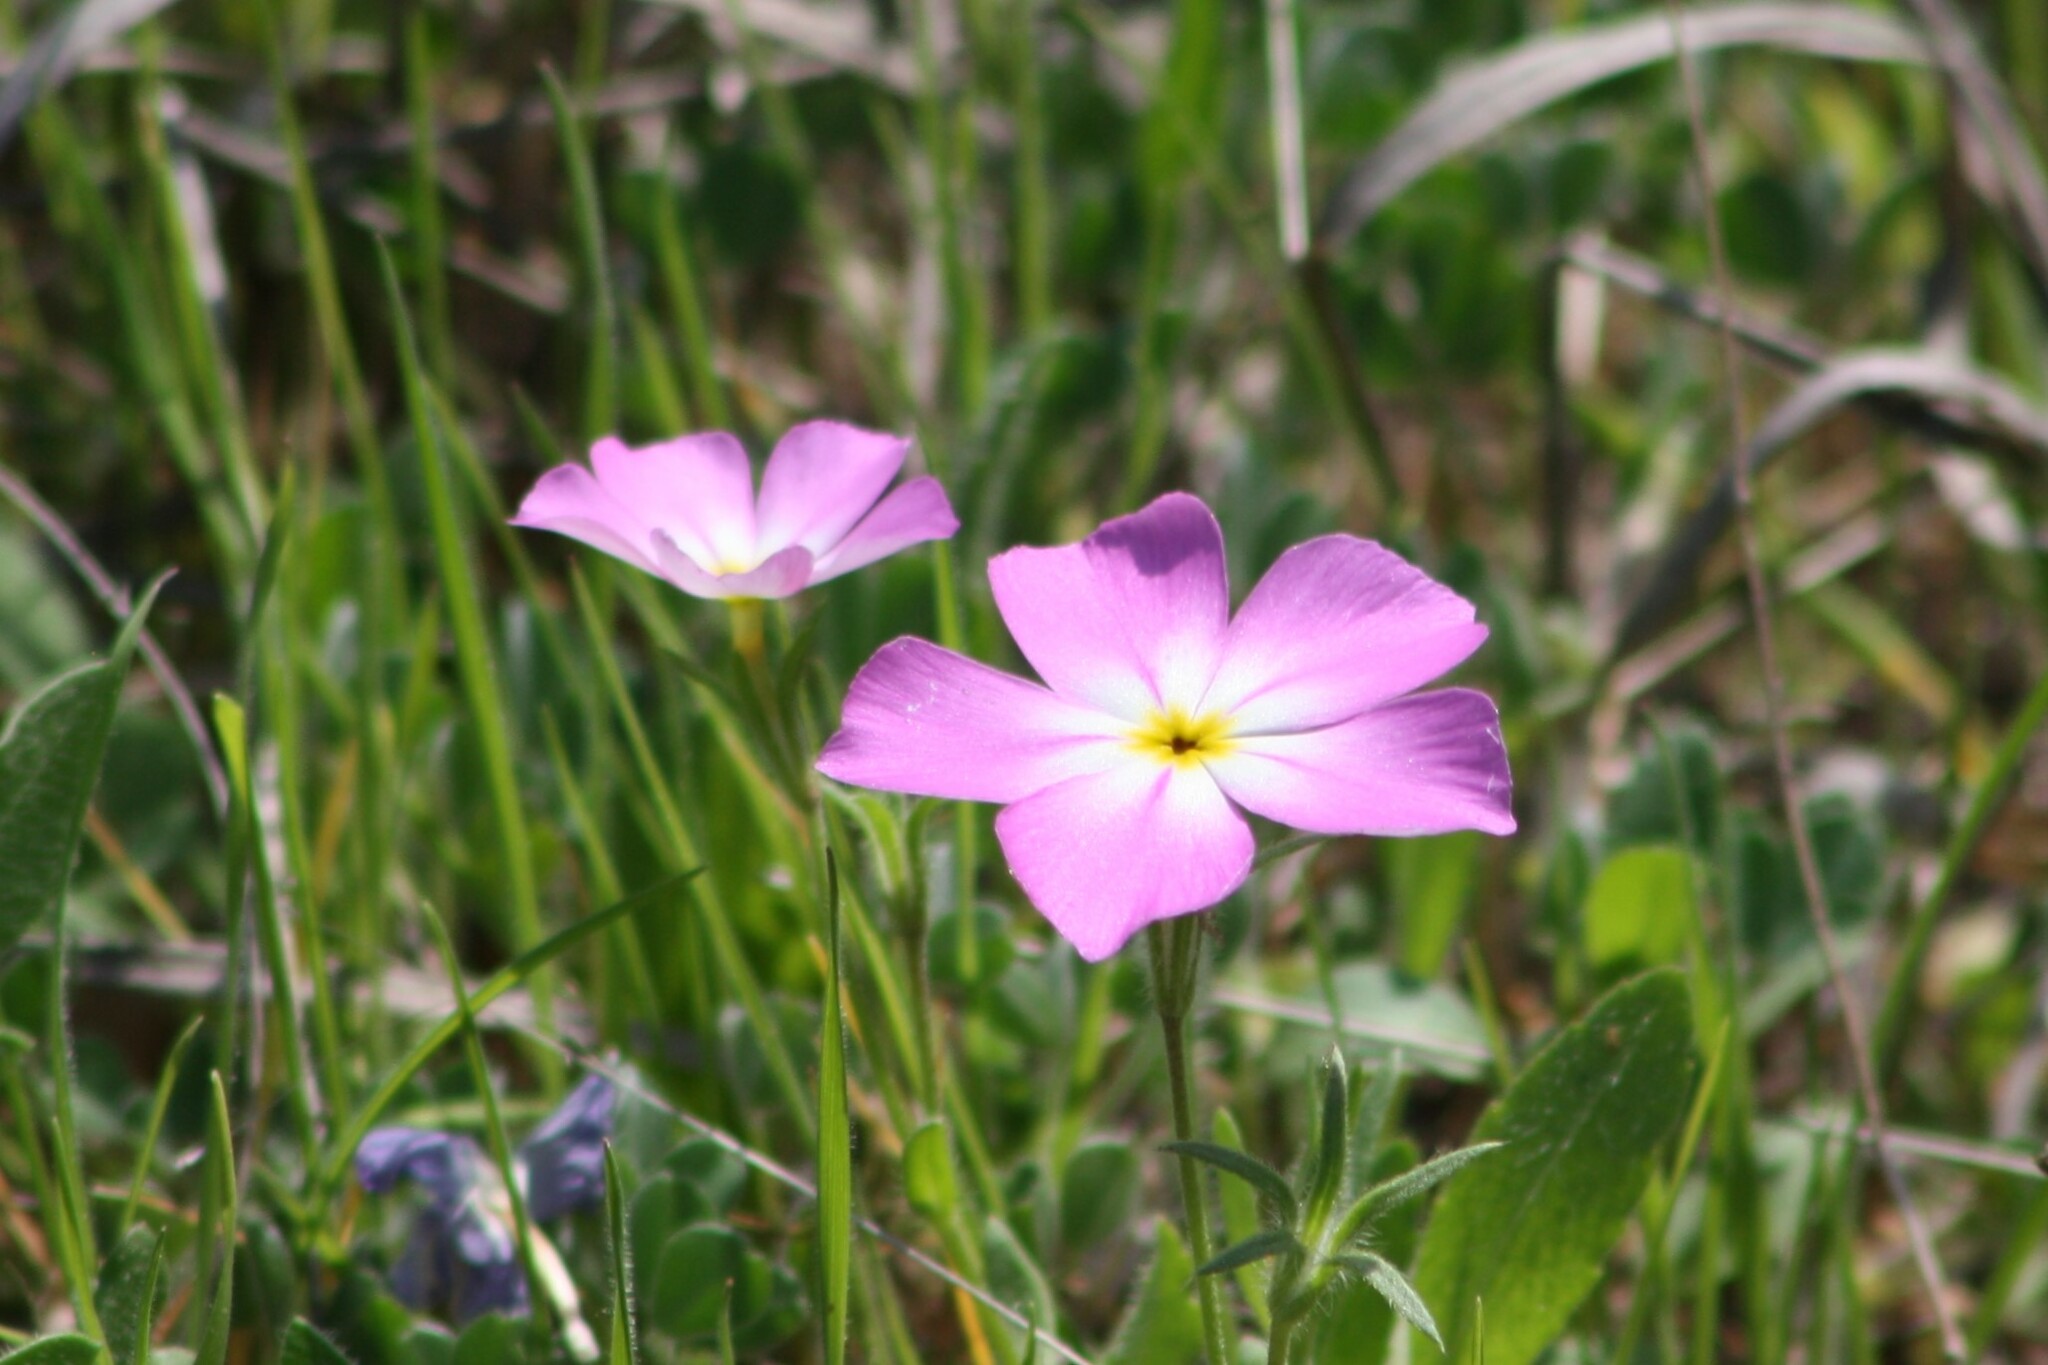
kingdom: Plantae
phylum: Tracheophyta
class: Magnoliopsida
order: Ericales
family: Polemoniaceae
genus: Phlox
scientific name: Phlox roemeriana
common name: Roemer's phlox
